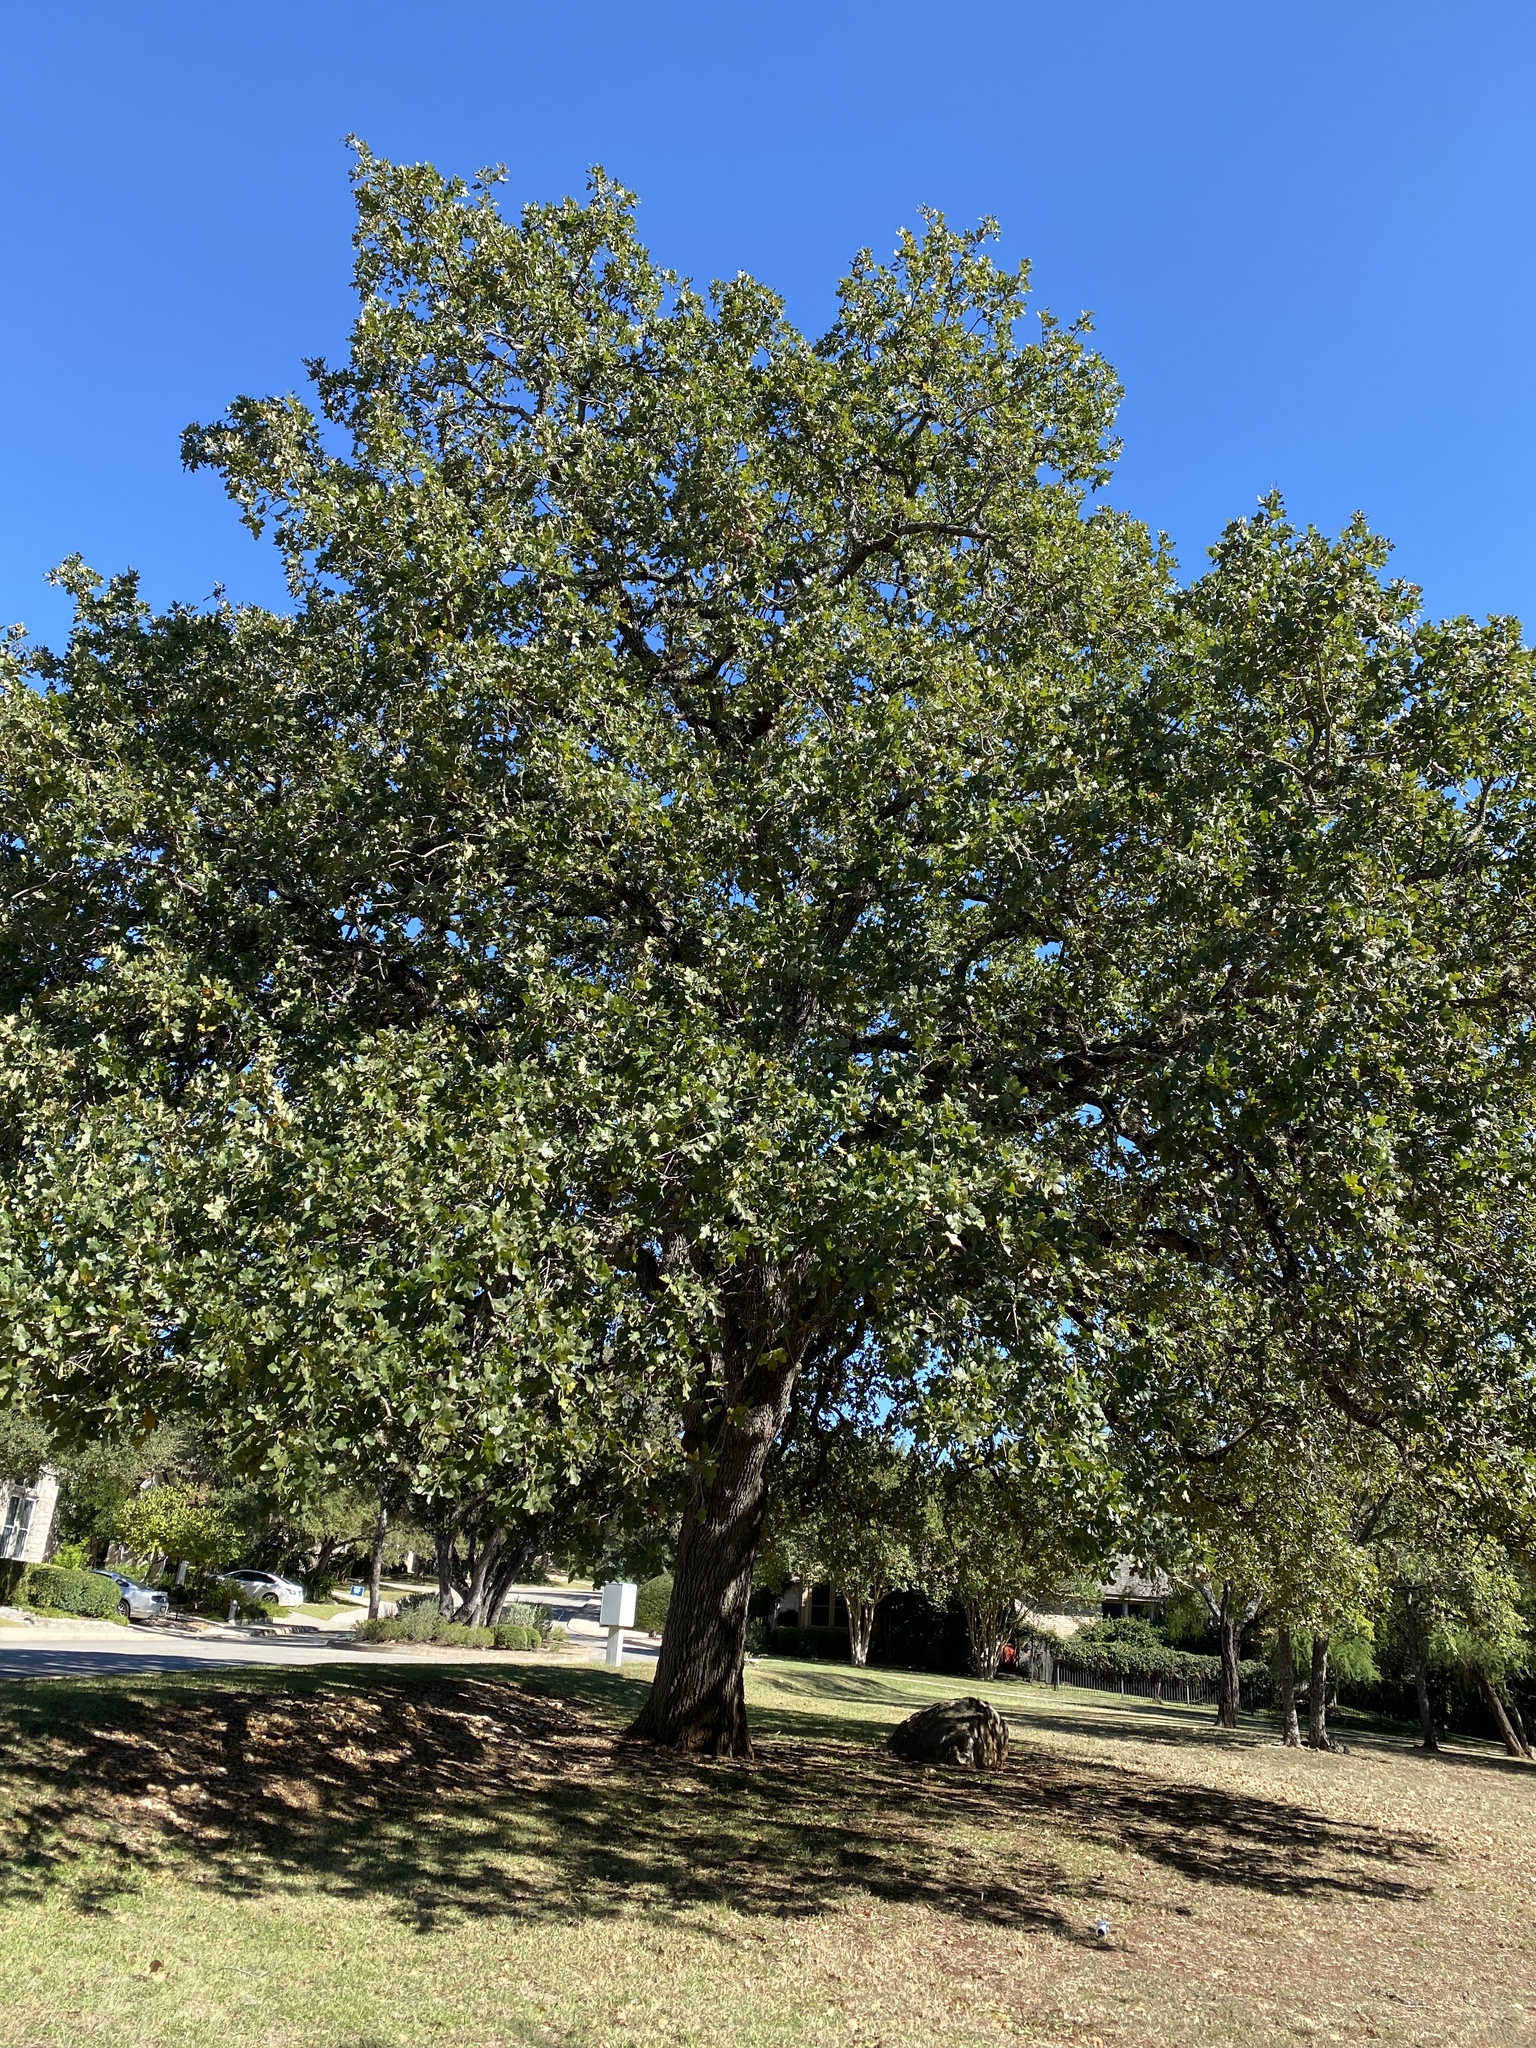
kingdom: Plantae
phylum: Tracheophyta
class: Magnoliopsida
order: Fagales
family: Fagaceae
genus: Quercus
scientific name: Quercus stellata
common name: Post oak
